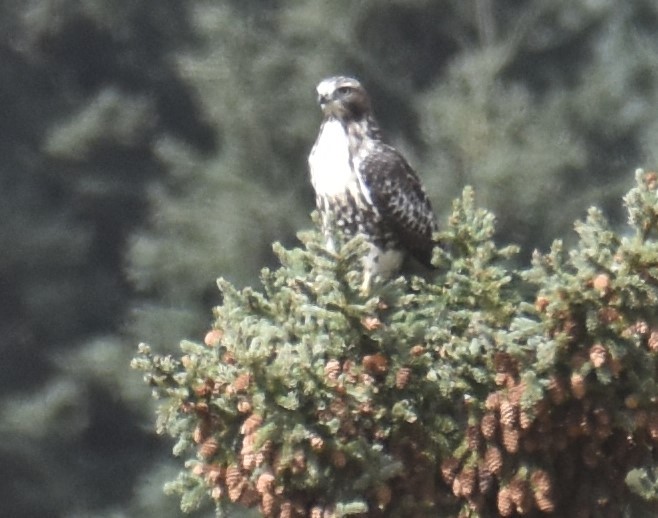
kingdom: Animalia
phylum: Chordata
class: Aves
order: Accipitriformes
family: Accipitridae
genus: Buteo
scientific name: Buteo jamaicensis
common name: Red-tailed hawk
